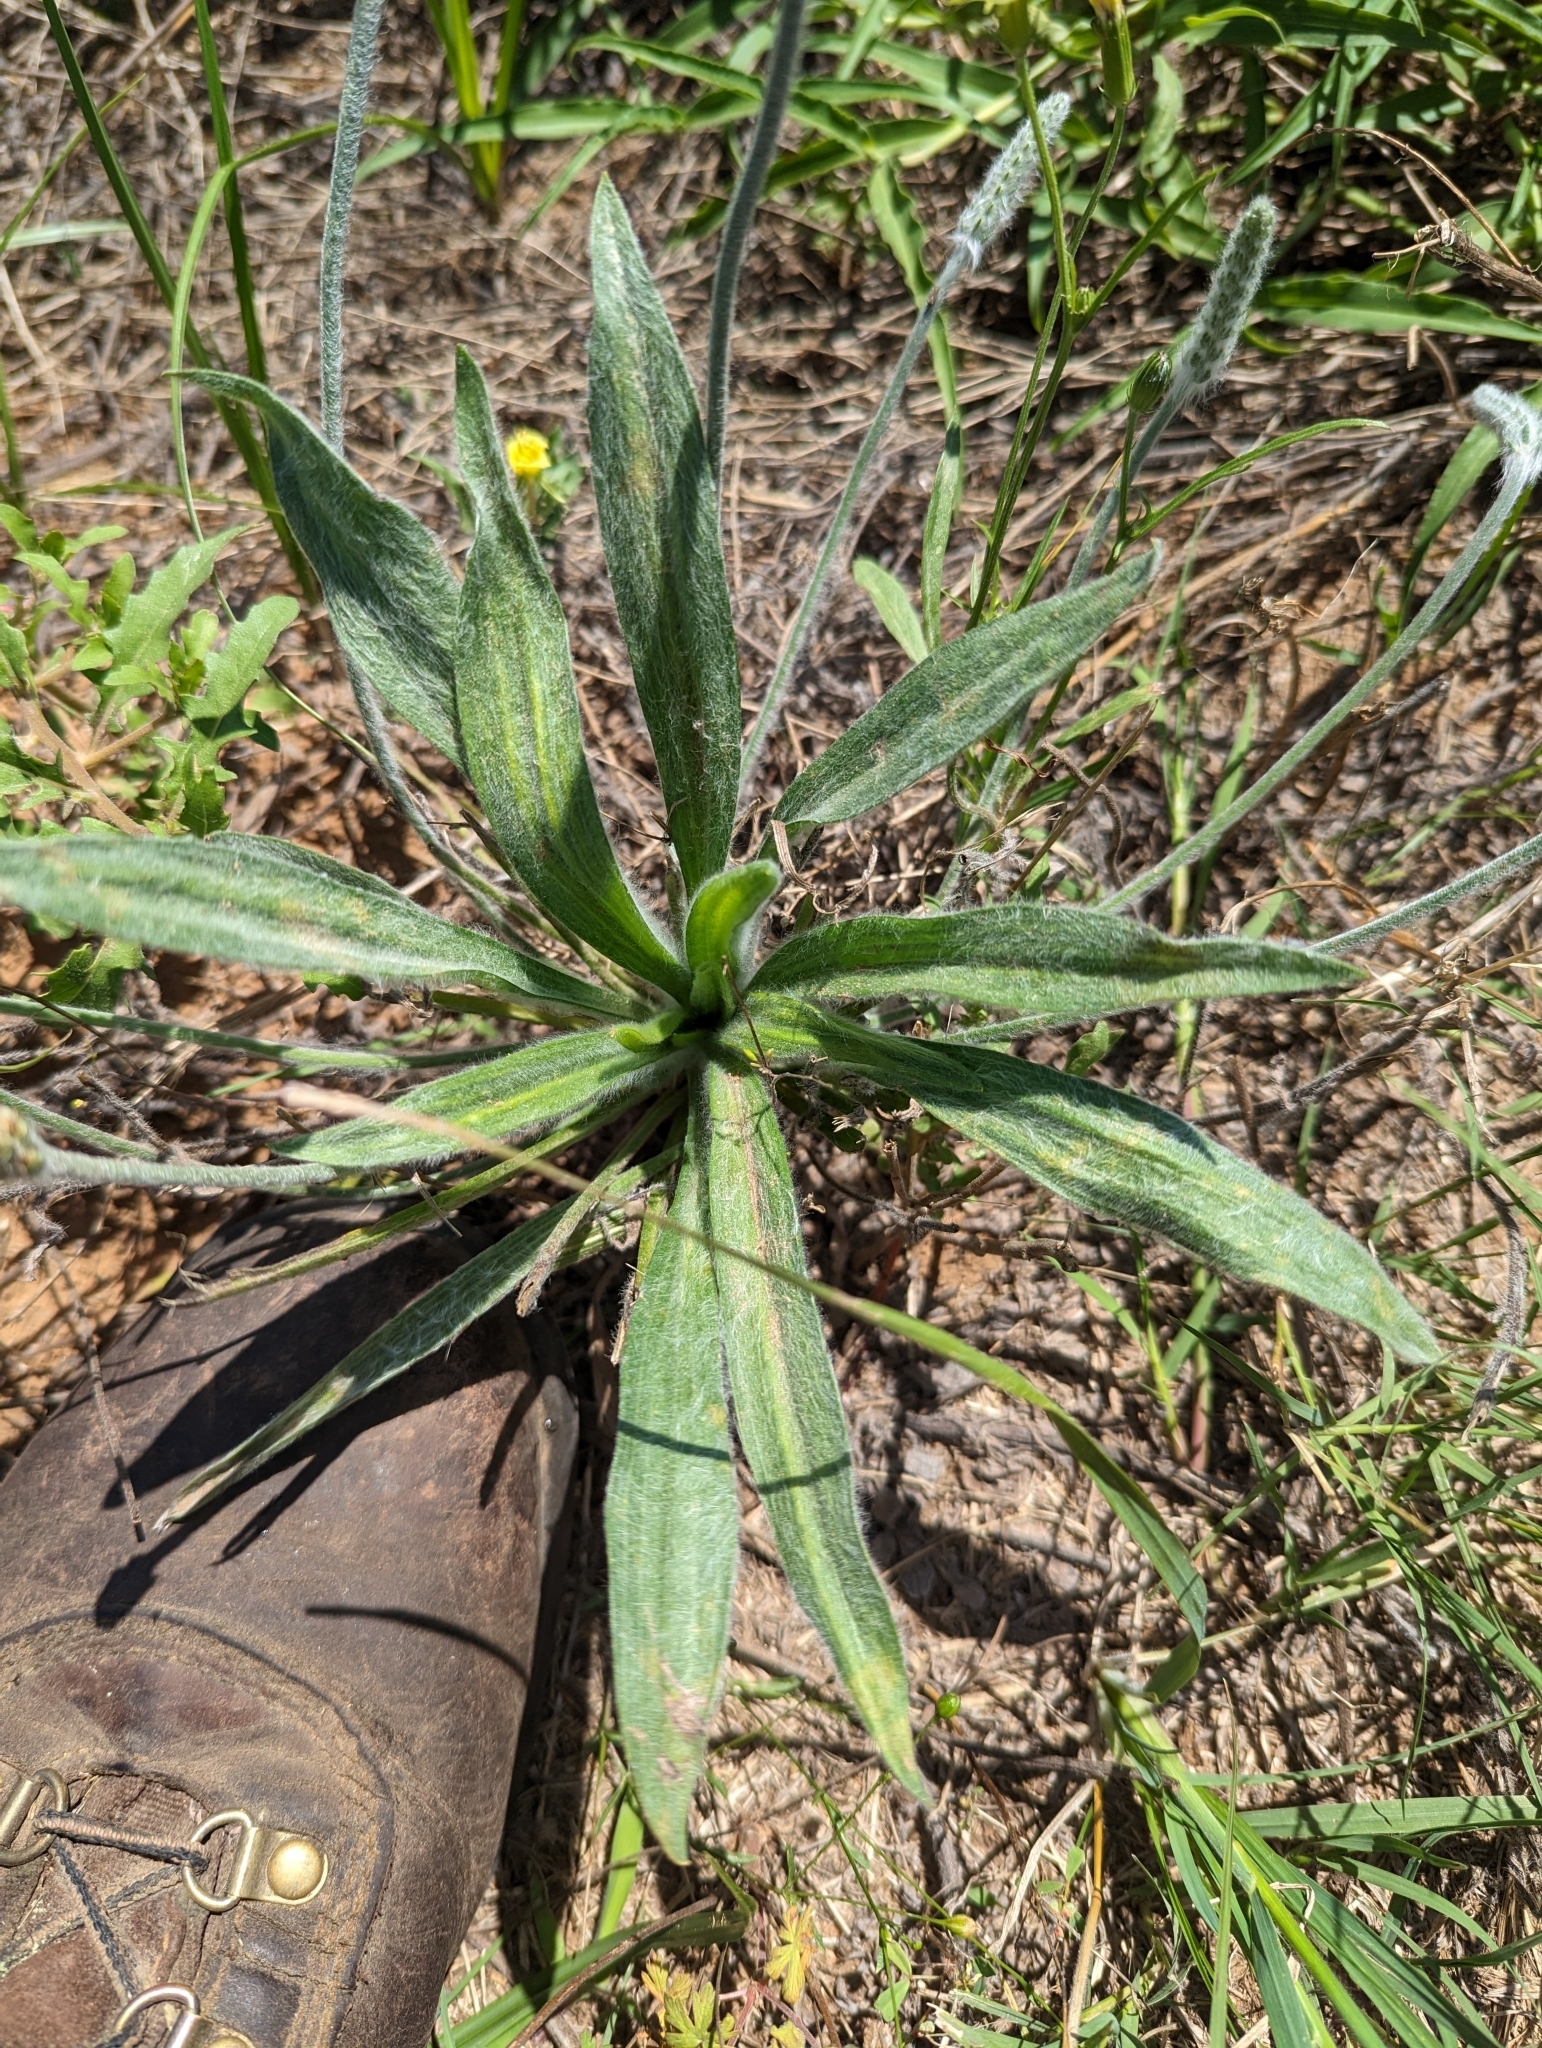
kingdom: Plantae
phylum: Tracheophyta
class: Magnoliopsida
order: Lamiales
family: Plantaginaceae
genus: Plantago
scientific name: Plantago wrightiana
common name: Wright's plantain
